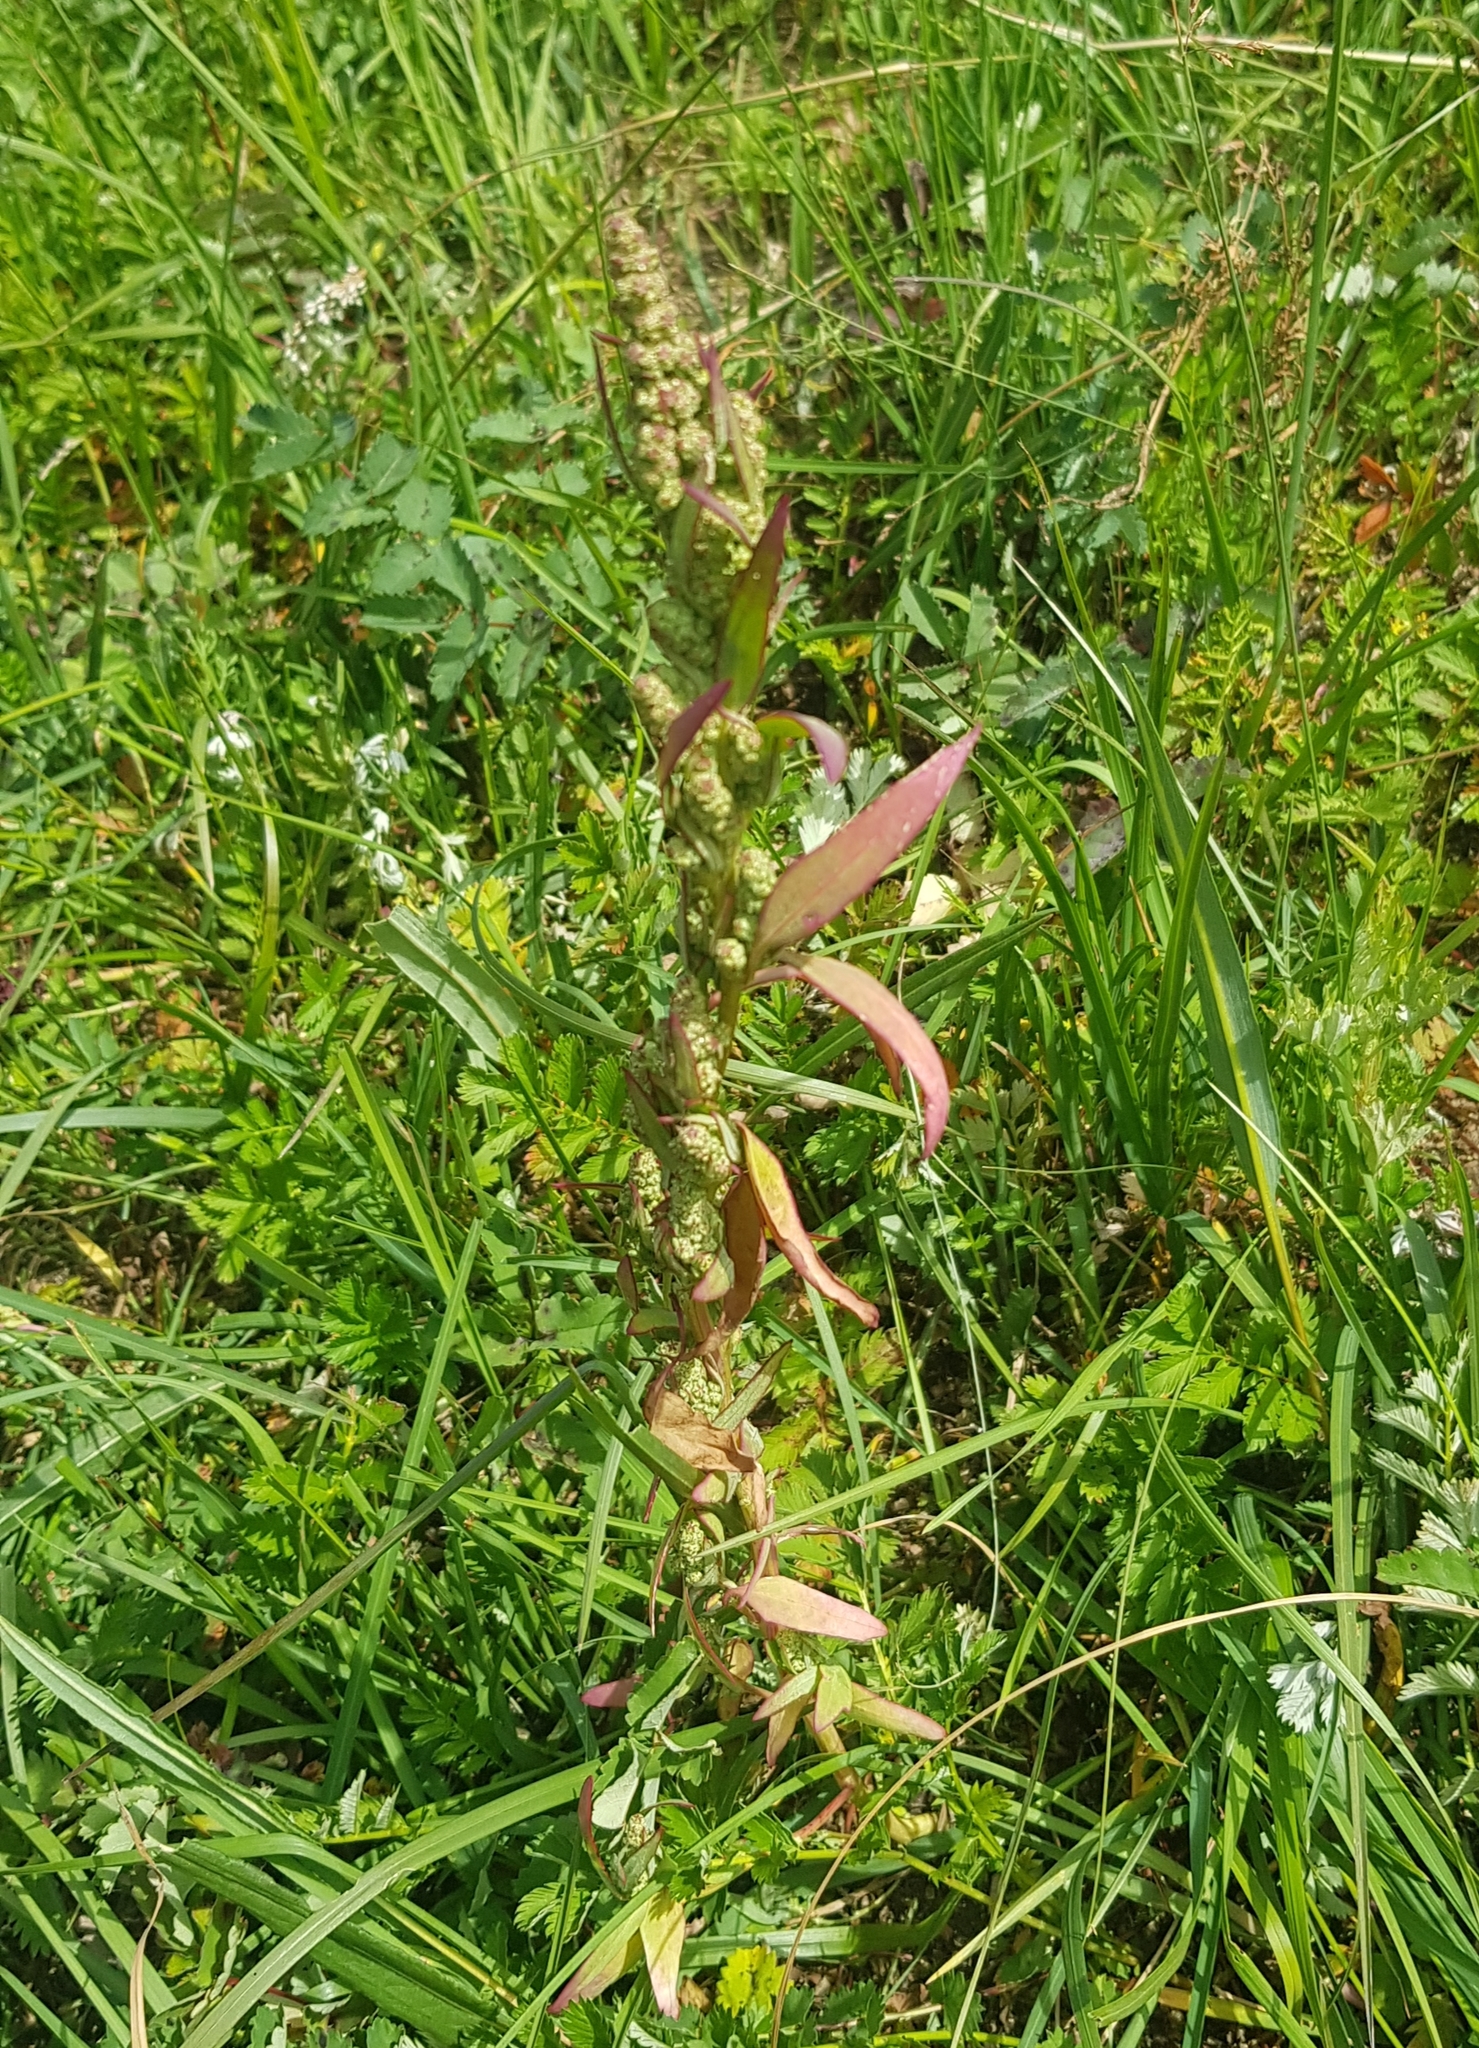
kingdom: Plantae
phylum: Tracheophyta
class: Magnoliopsida
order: Caryophyllales
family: Amaranthaceae
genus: Chenopodium
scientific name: Chenopodium album
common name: Fat-hen
